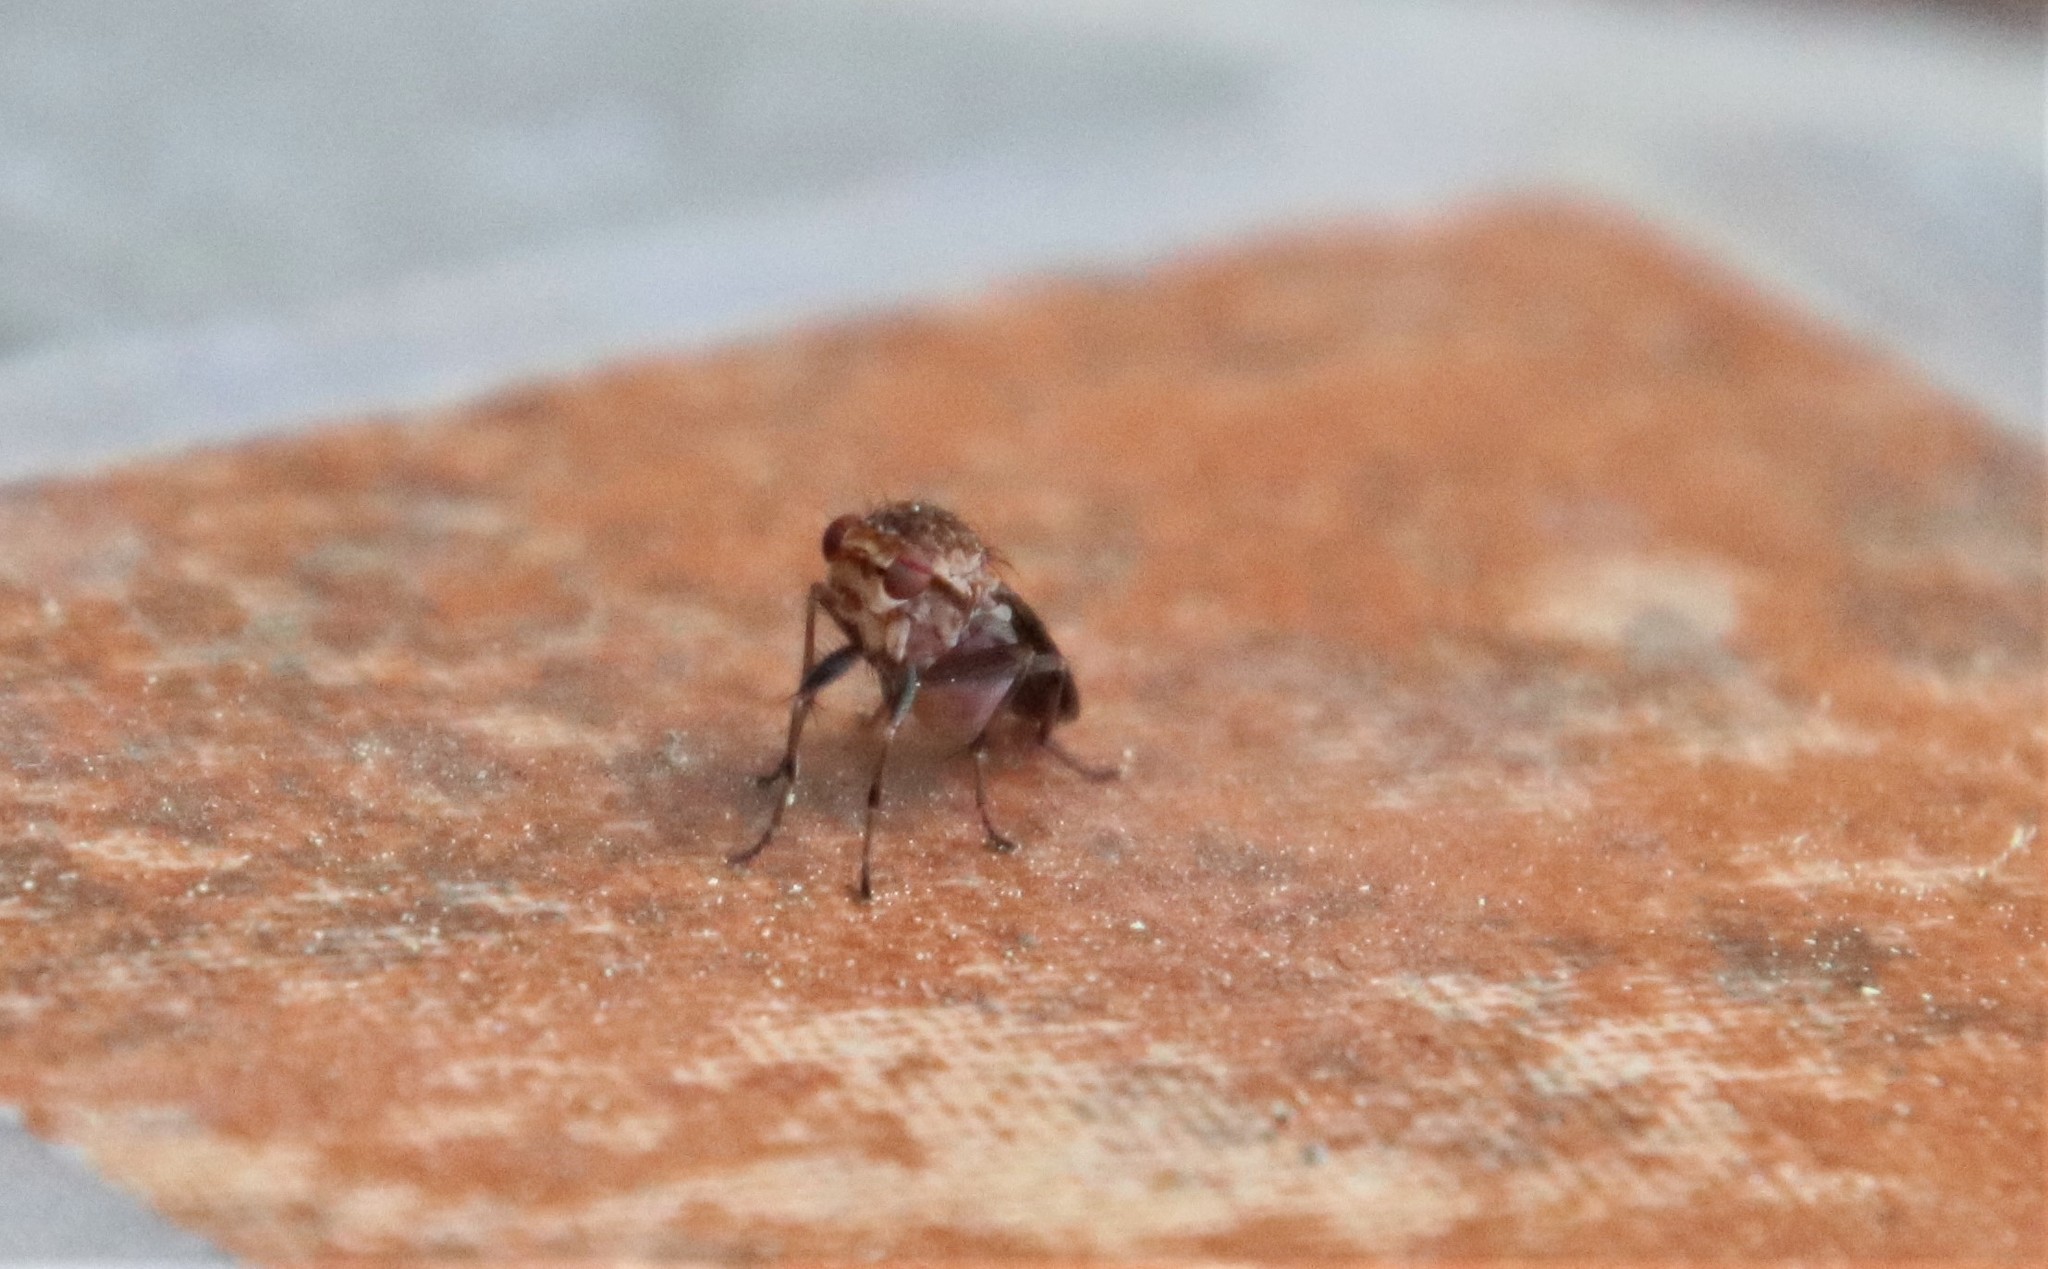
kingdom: Animalia
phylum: Arthropoda
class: Insecta
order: Diptera
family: Heleomyzidae
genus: Suillia
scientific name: Suillia barberi
